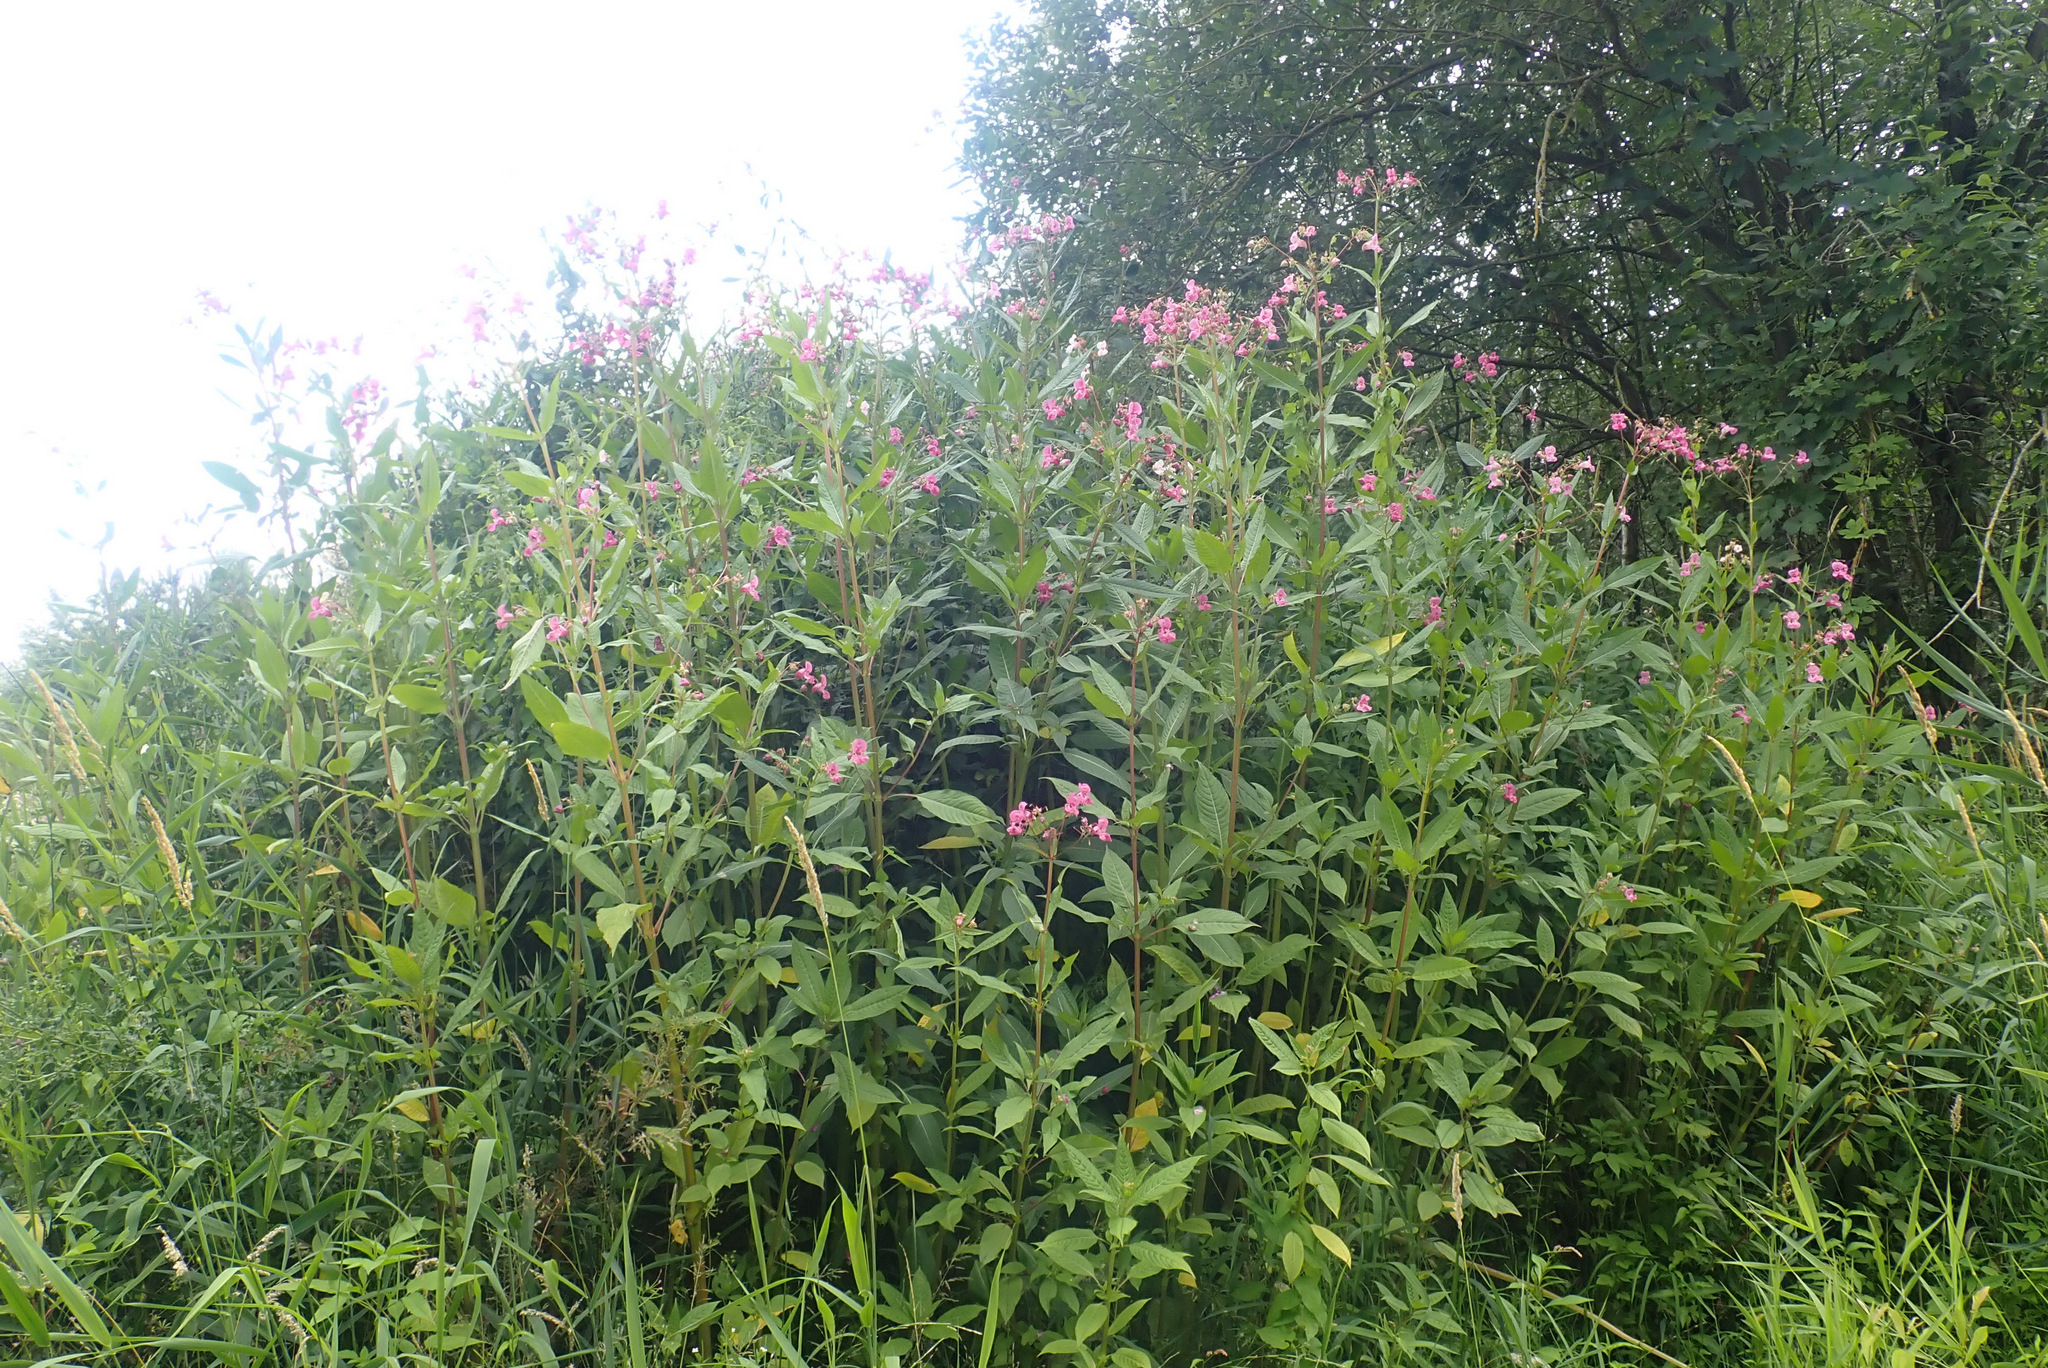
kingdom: Plantae
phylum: Tracheophyta
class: Magnoliopsida
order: Ericales
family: Balsaminaceae
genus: Impatiens
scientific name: Impatiens glandulifera
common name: Himalayan balsam
